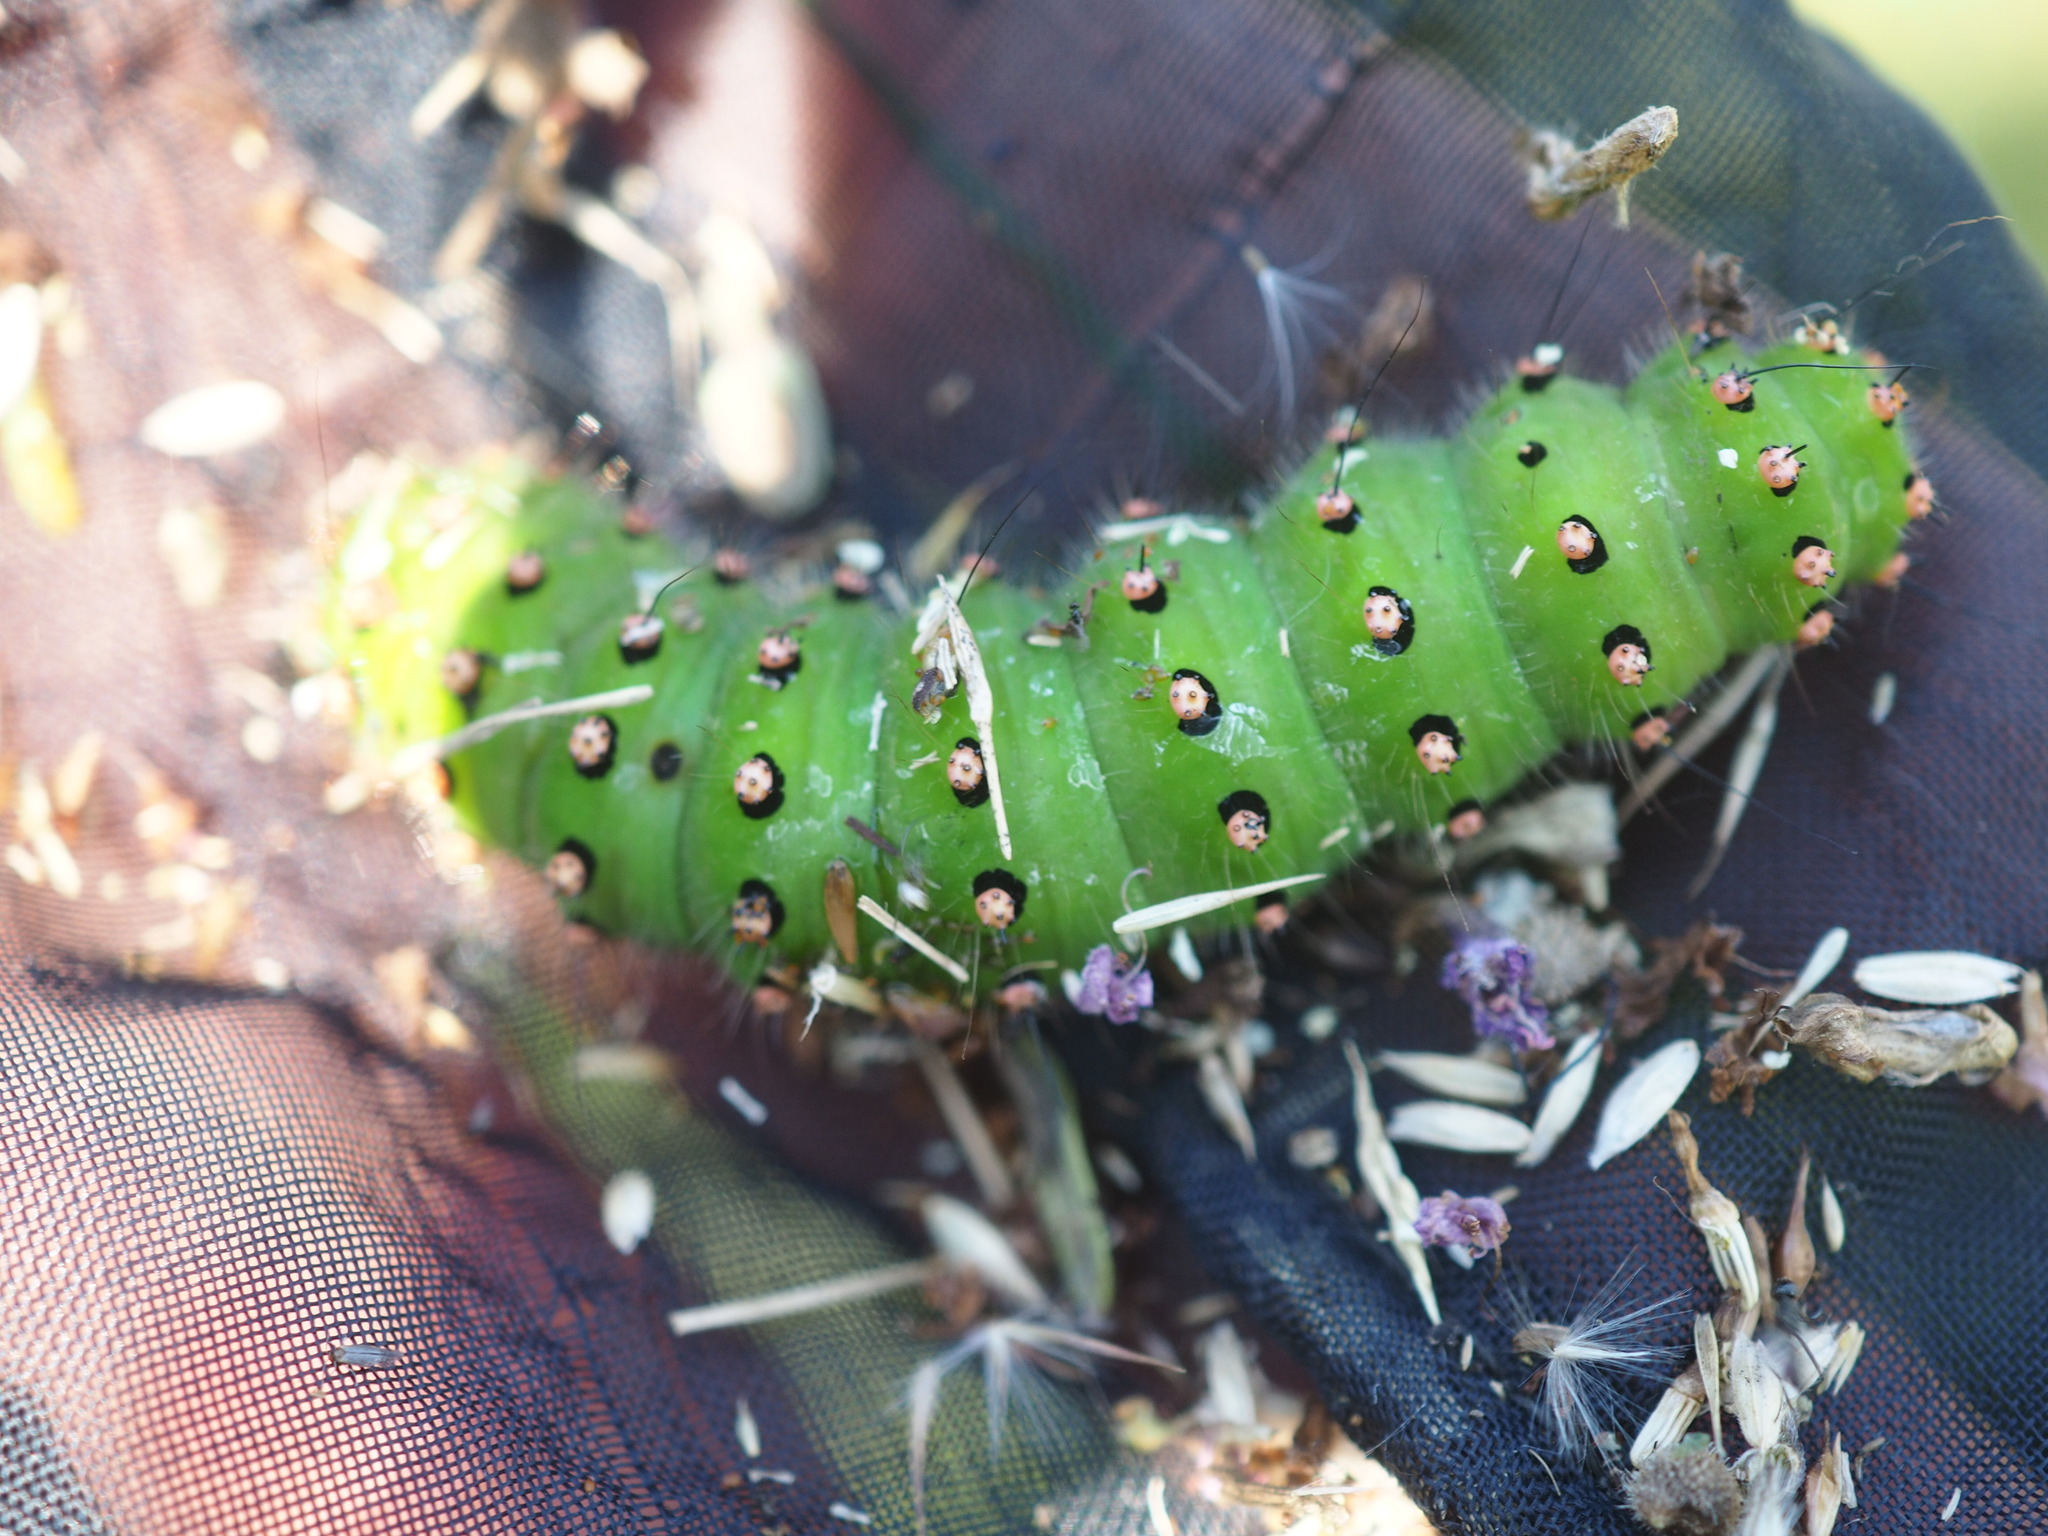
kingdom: Animalia
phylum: Arthropoda
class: Insecta
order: Lepidoptera
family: Saturniidae
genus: Saturnia
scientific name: Saturnia pavonia
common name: Emperor moth
